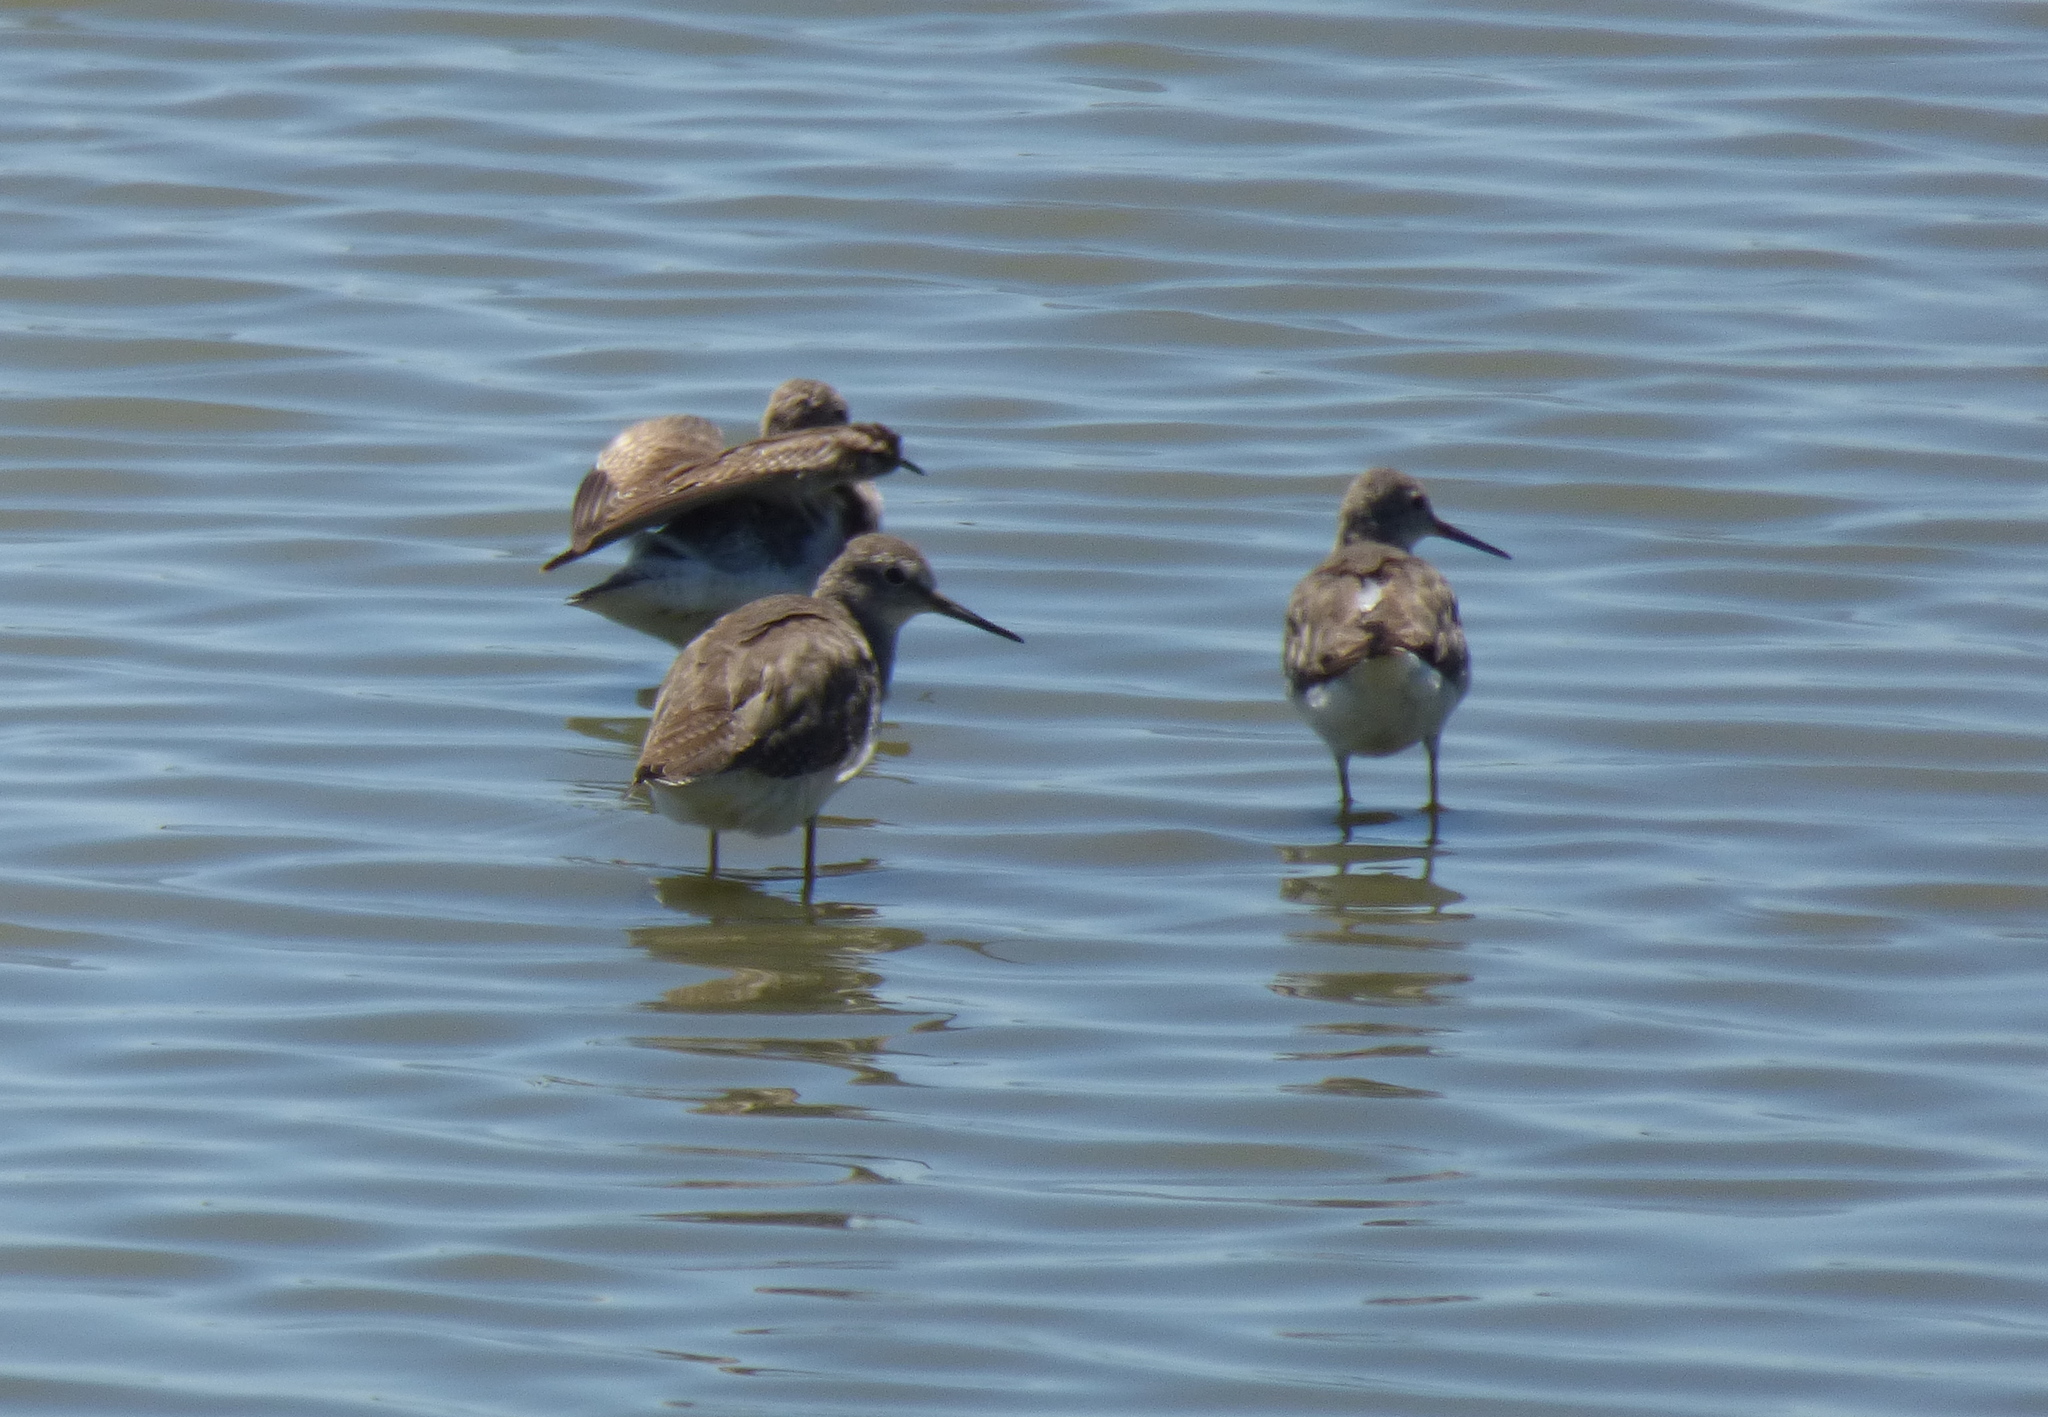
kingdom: Animalia
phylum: Chordata
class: Aves
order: Charadriiformes
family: Scolopacidae
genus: Tringa
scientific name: Tringa flavipes
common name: Lesser yellowlegs
